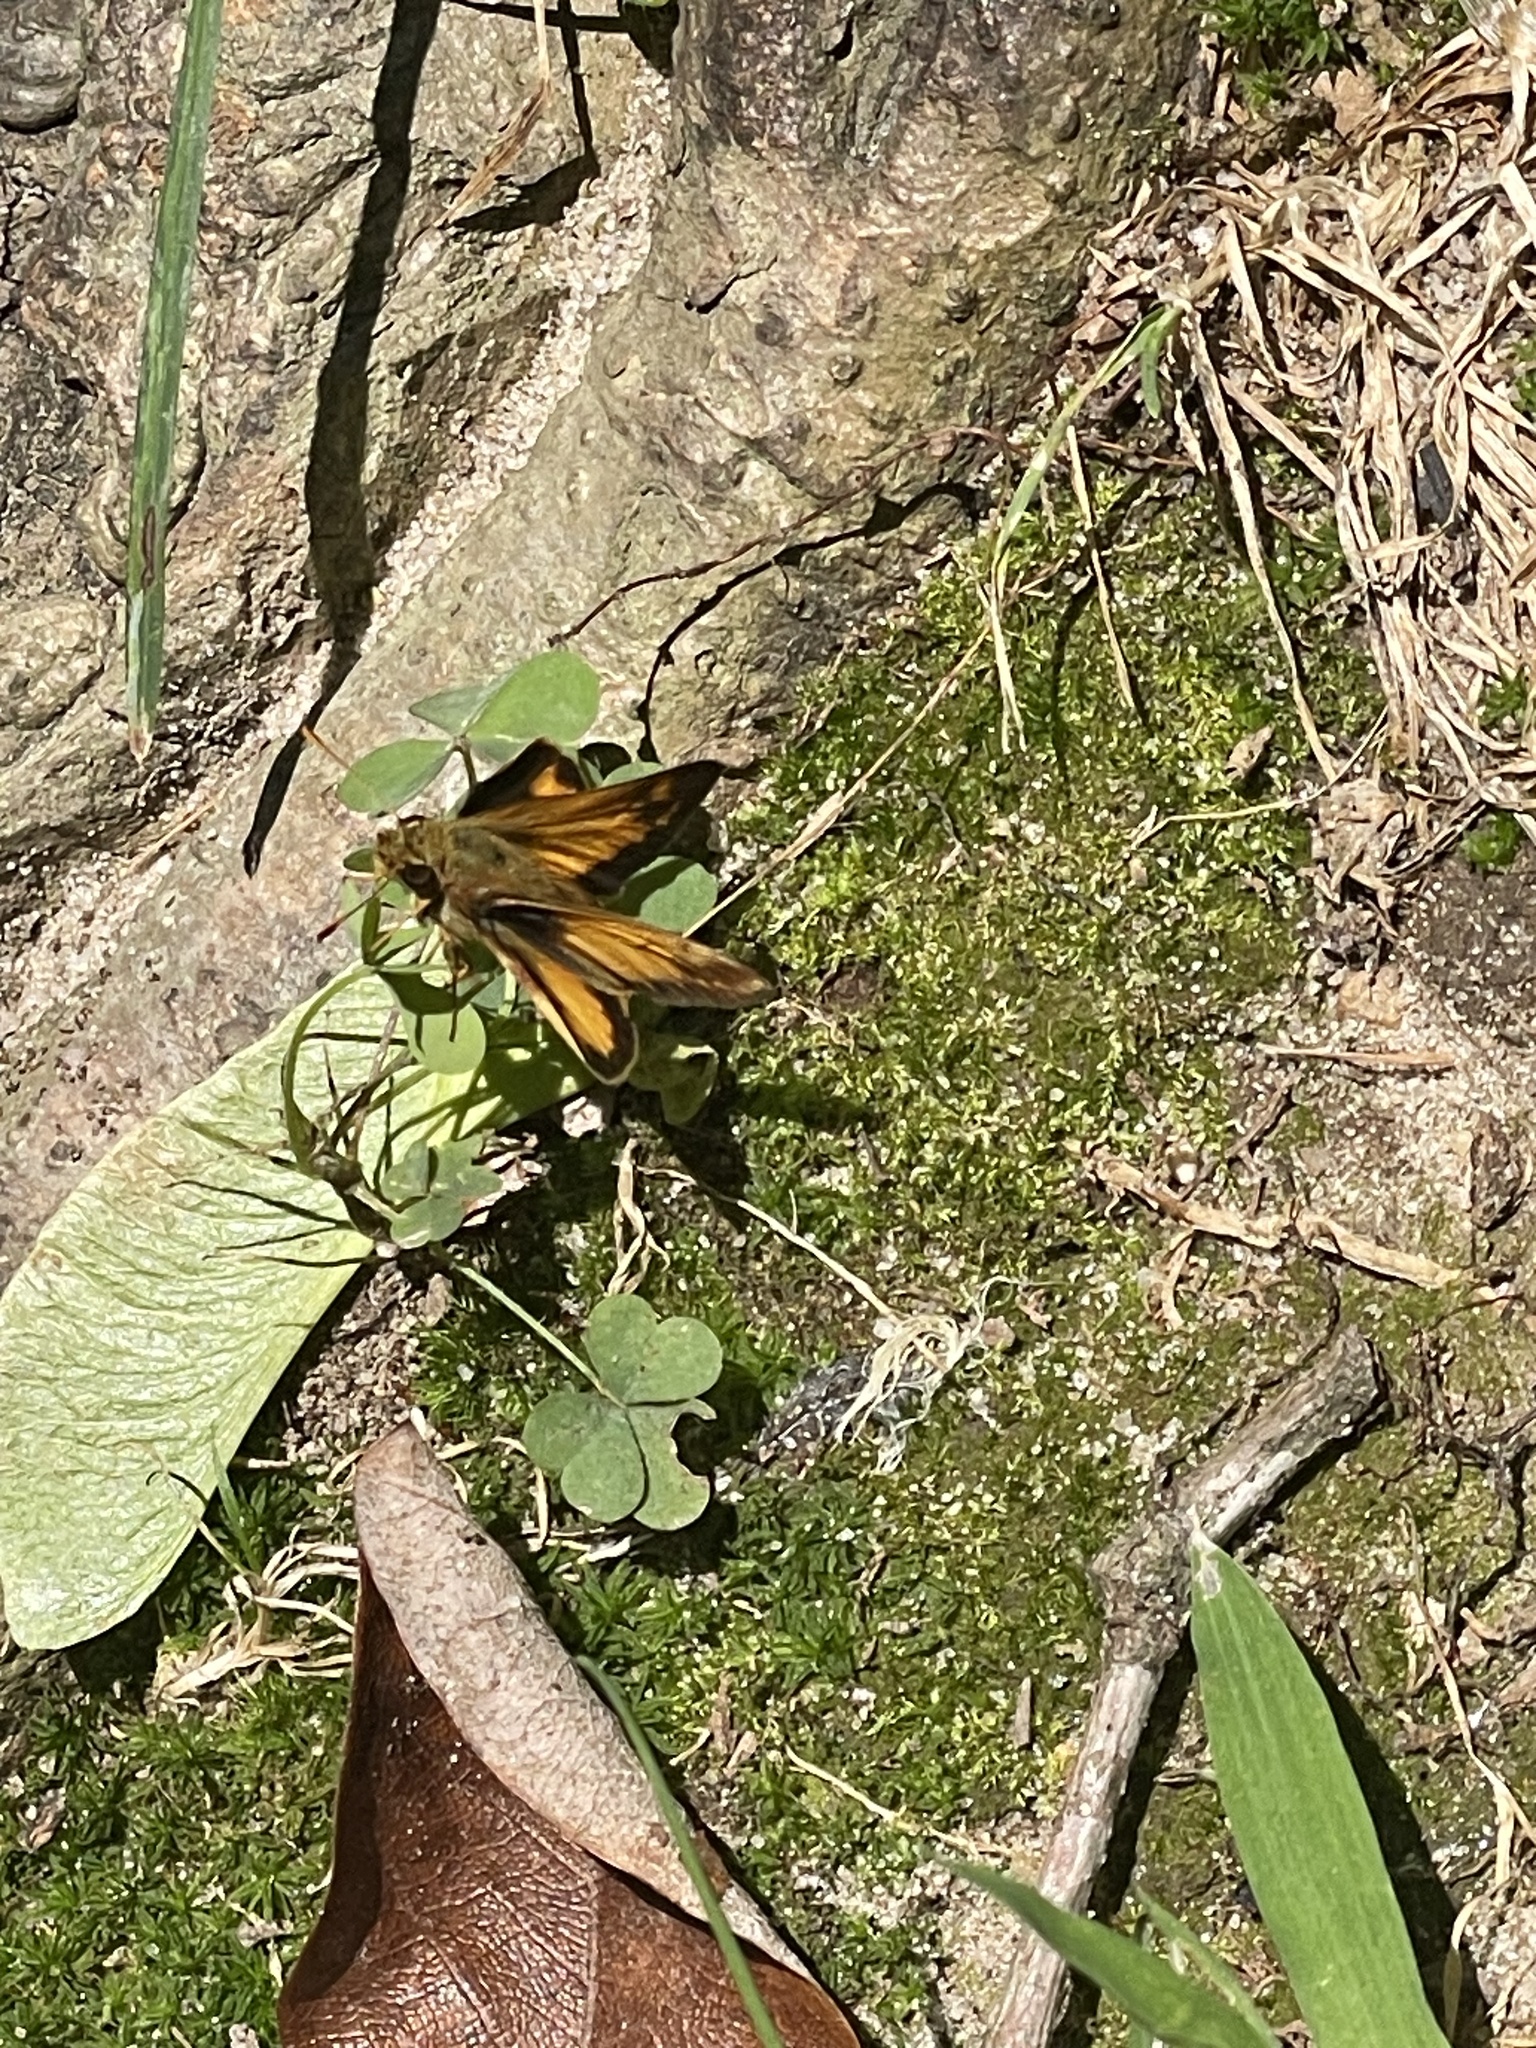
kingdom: Animalia
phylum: Arthropoda
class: Insecta
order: Lepidoptera
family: Hesperiidae
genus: Lon
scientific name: Lon zabulon
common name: Zabulon skipper
